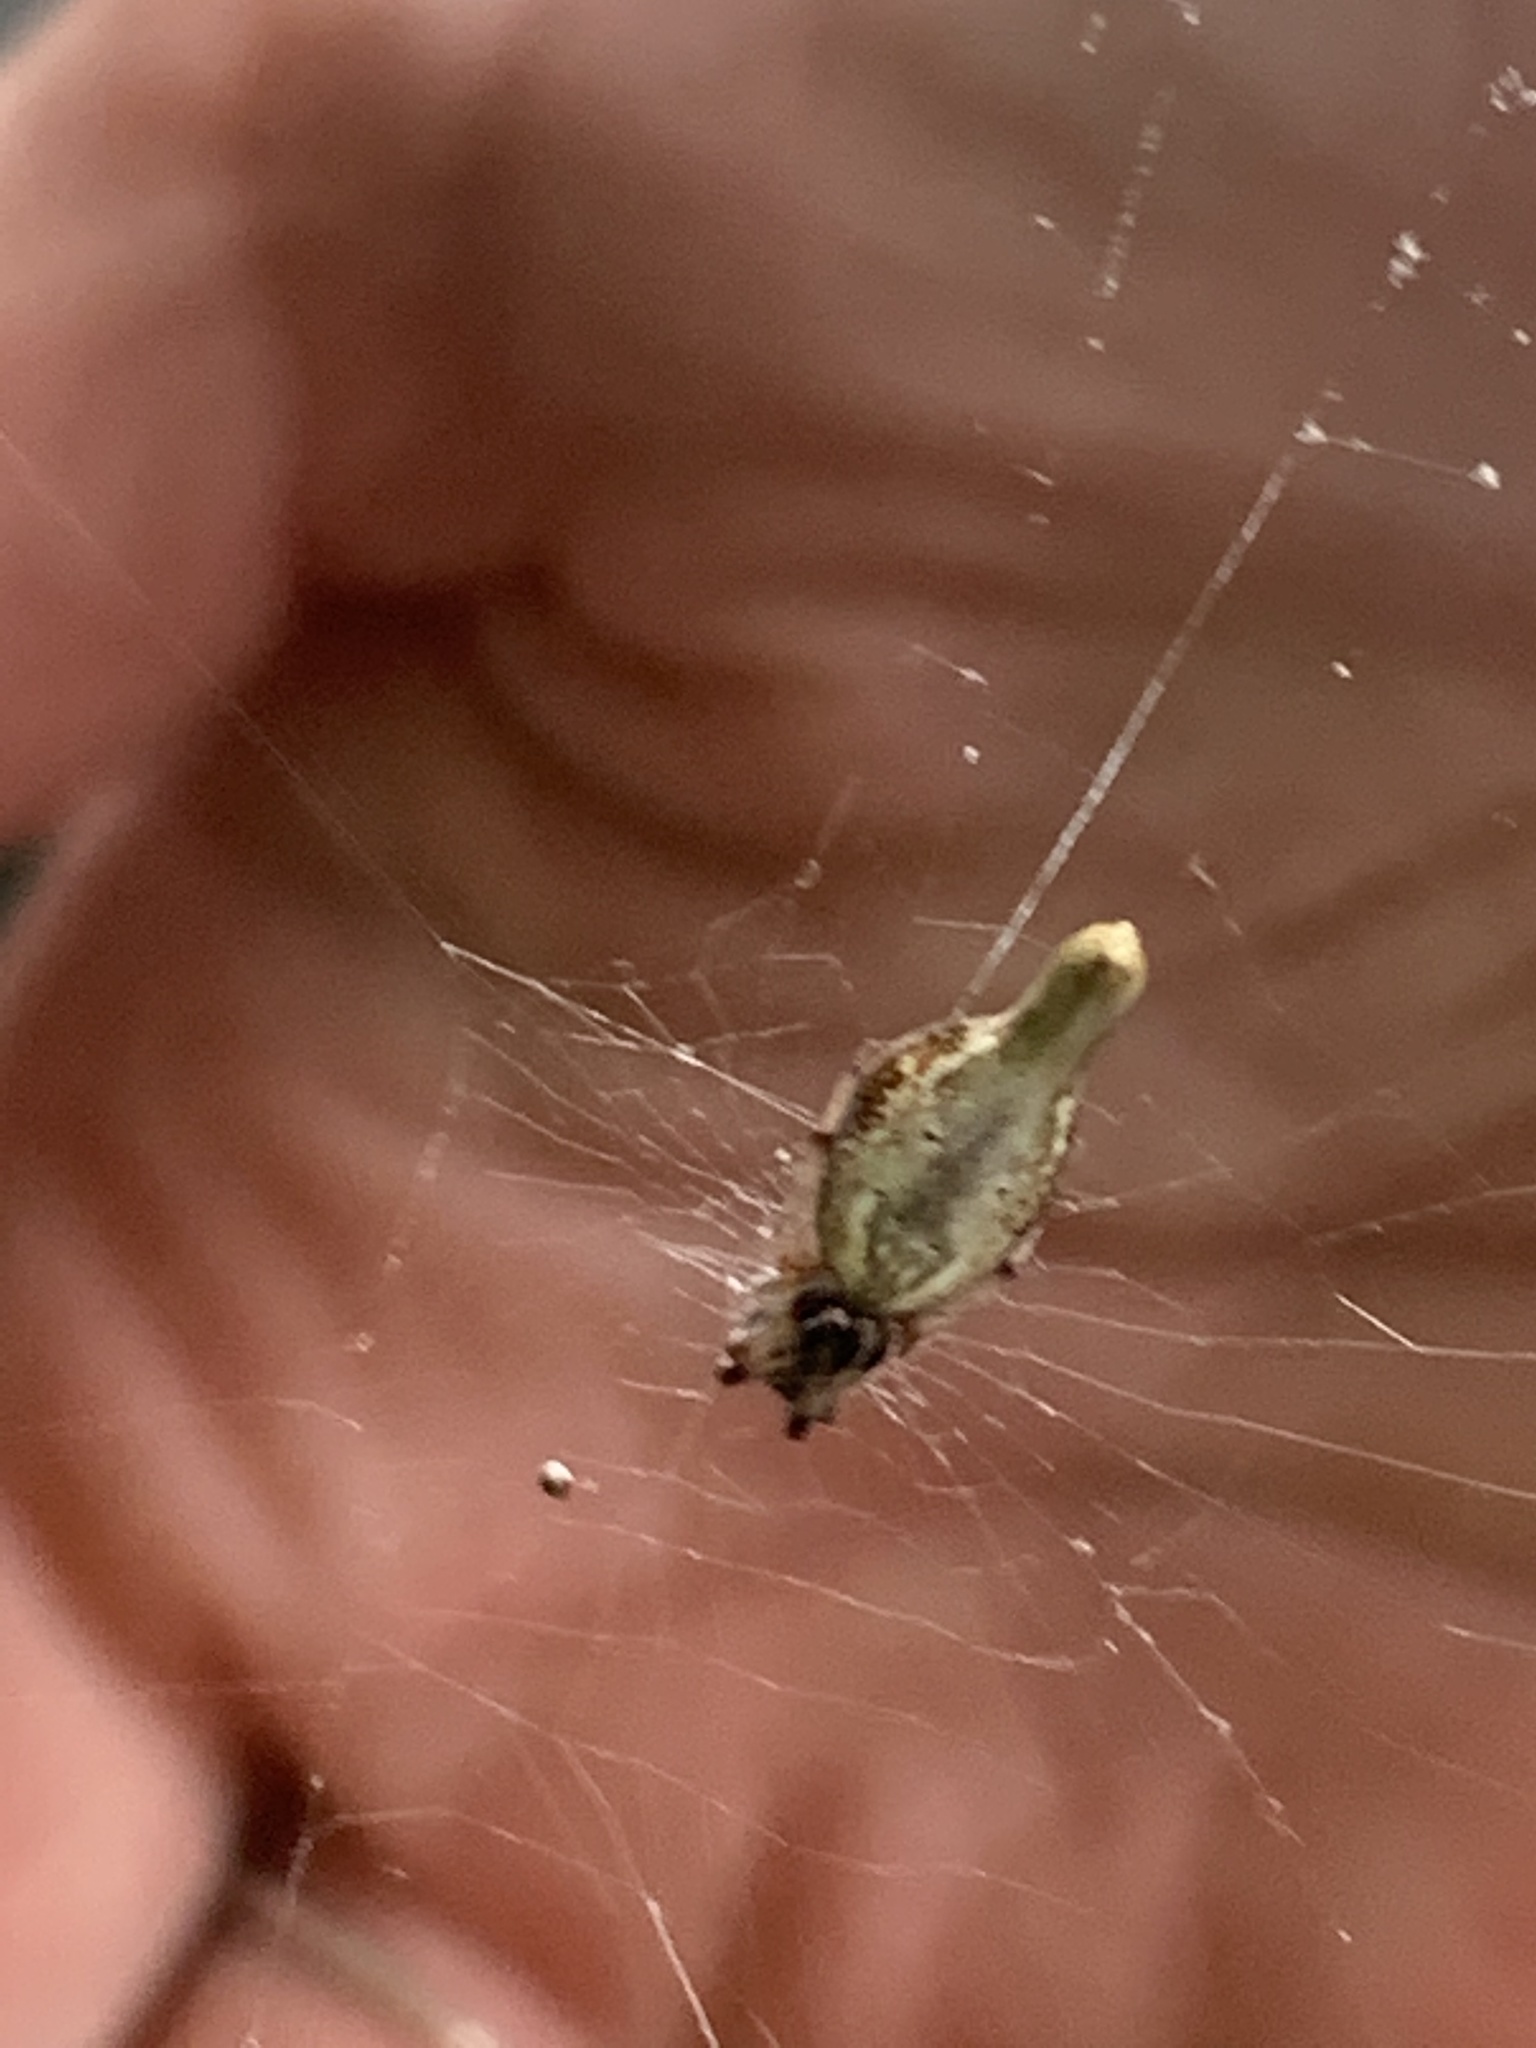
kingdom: Animalia
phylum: Arthropoda
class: Arachnida
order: Araneae
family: Araneidae
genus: Cyclosa
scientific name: Cyclosa conica
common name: Conical trashline orbweaver
